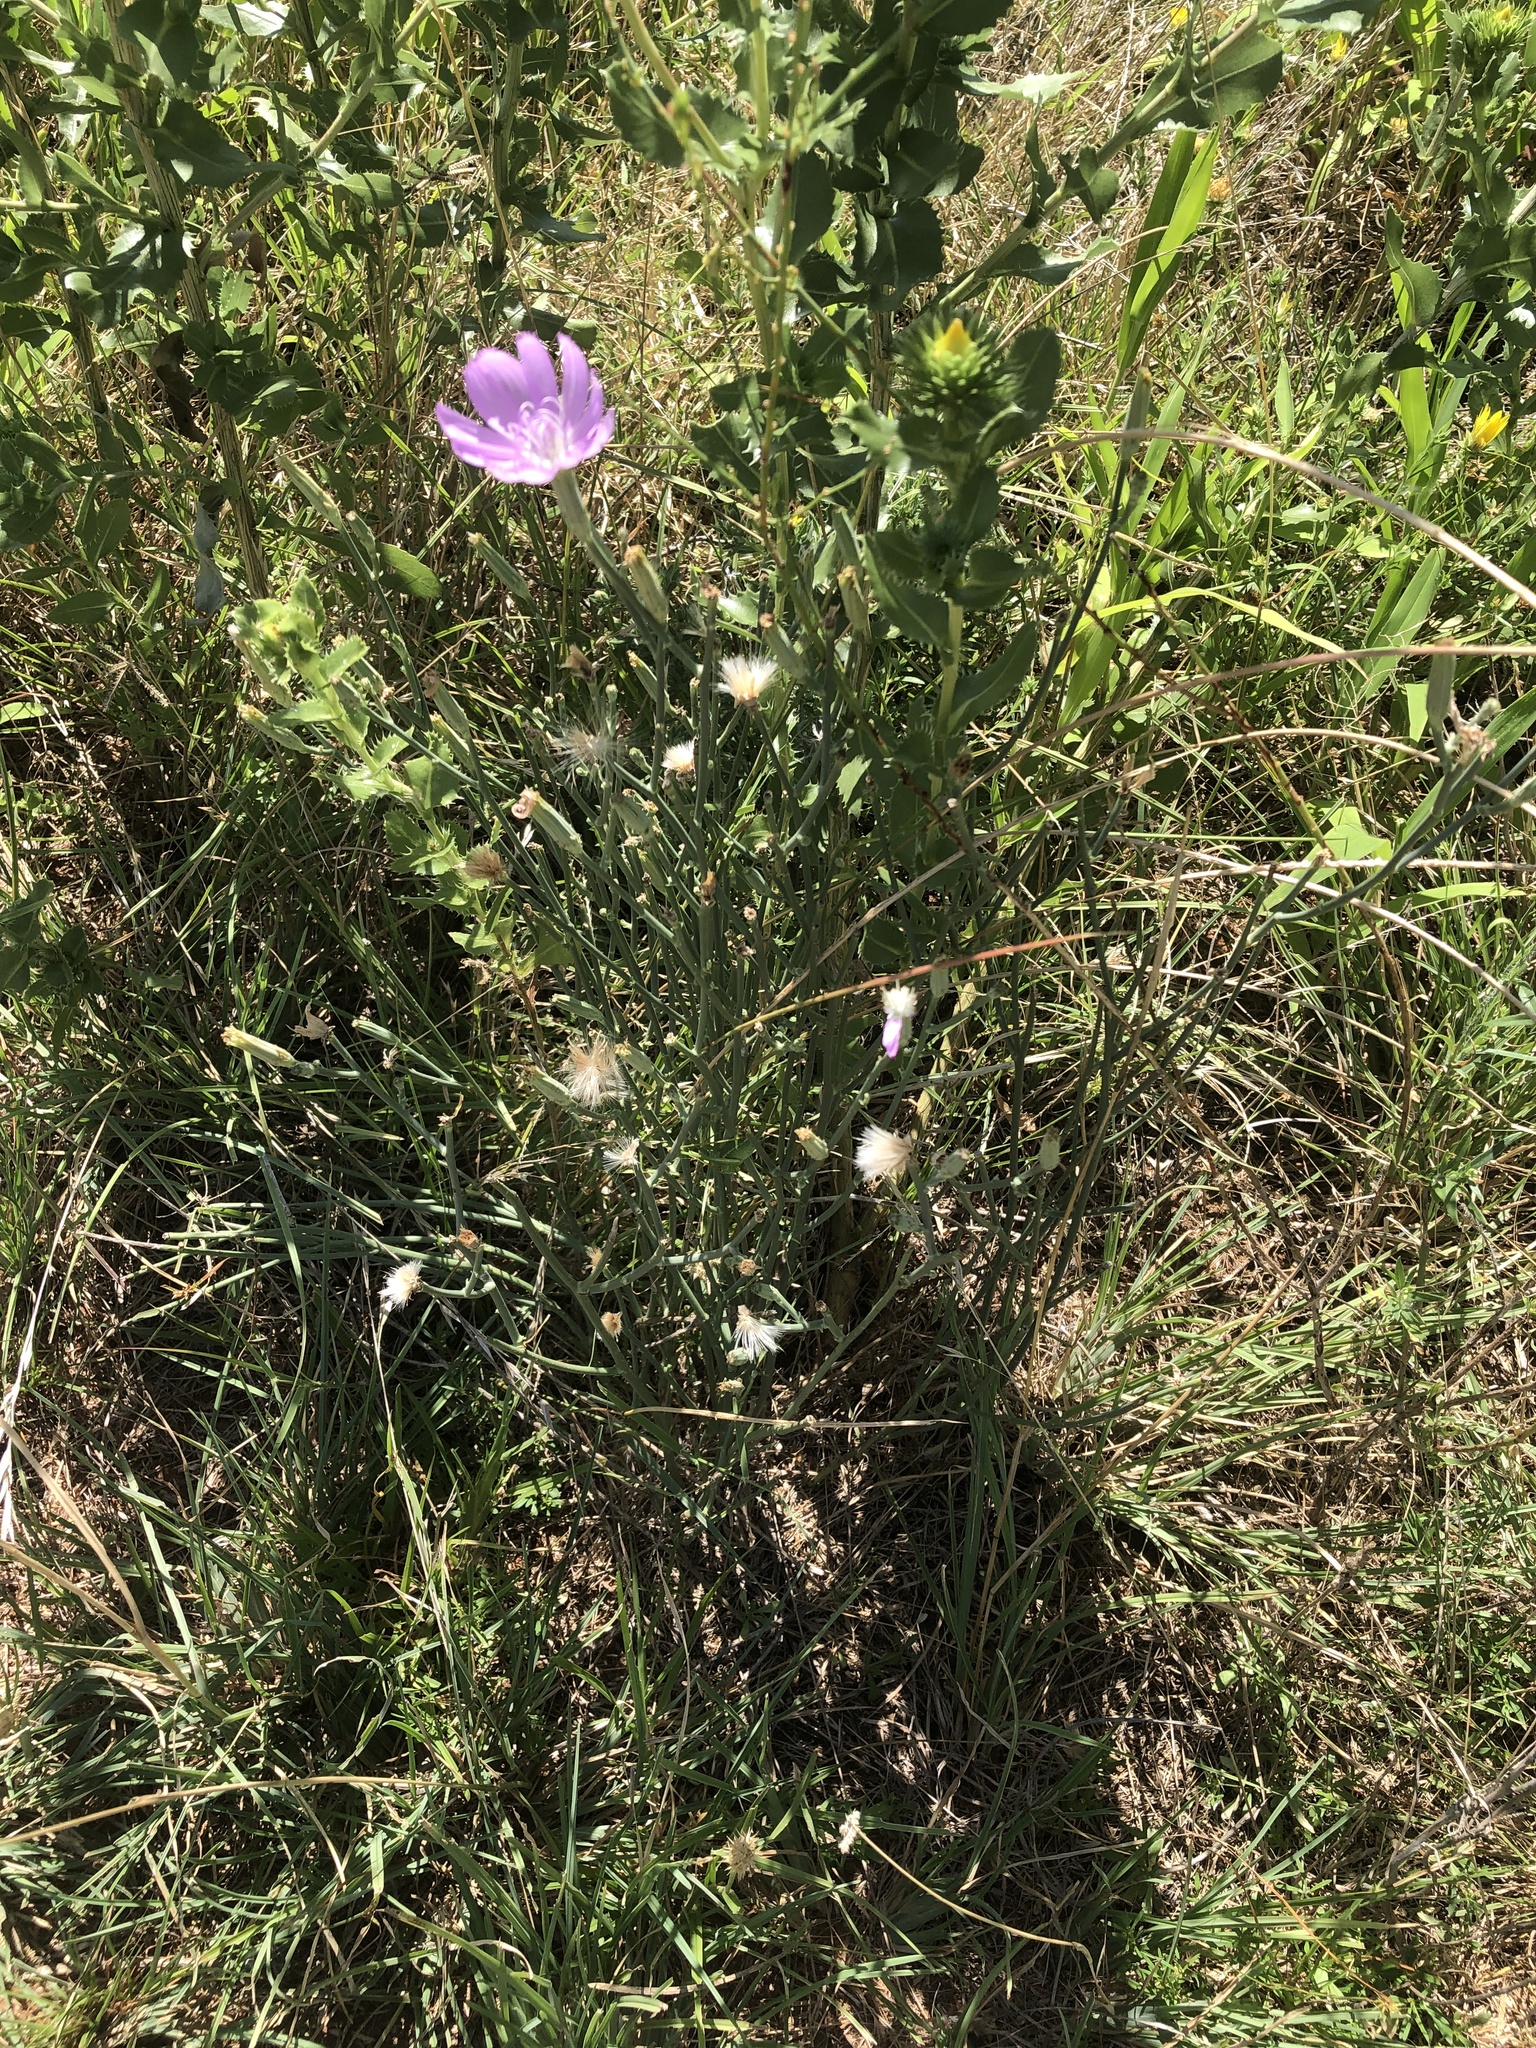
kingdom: Plantae
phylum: Tracheophyta
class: Magnoliopsida
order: Asterales
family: Asteraceae
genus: Lygodesmia
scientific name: Lygodesmia texana
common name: Texas skeleton-plant
